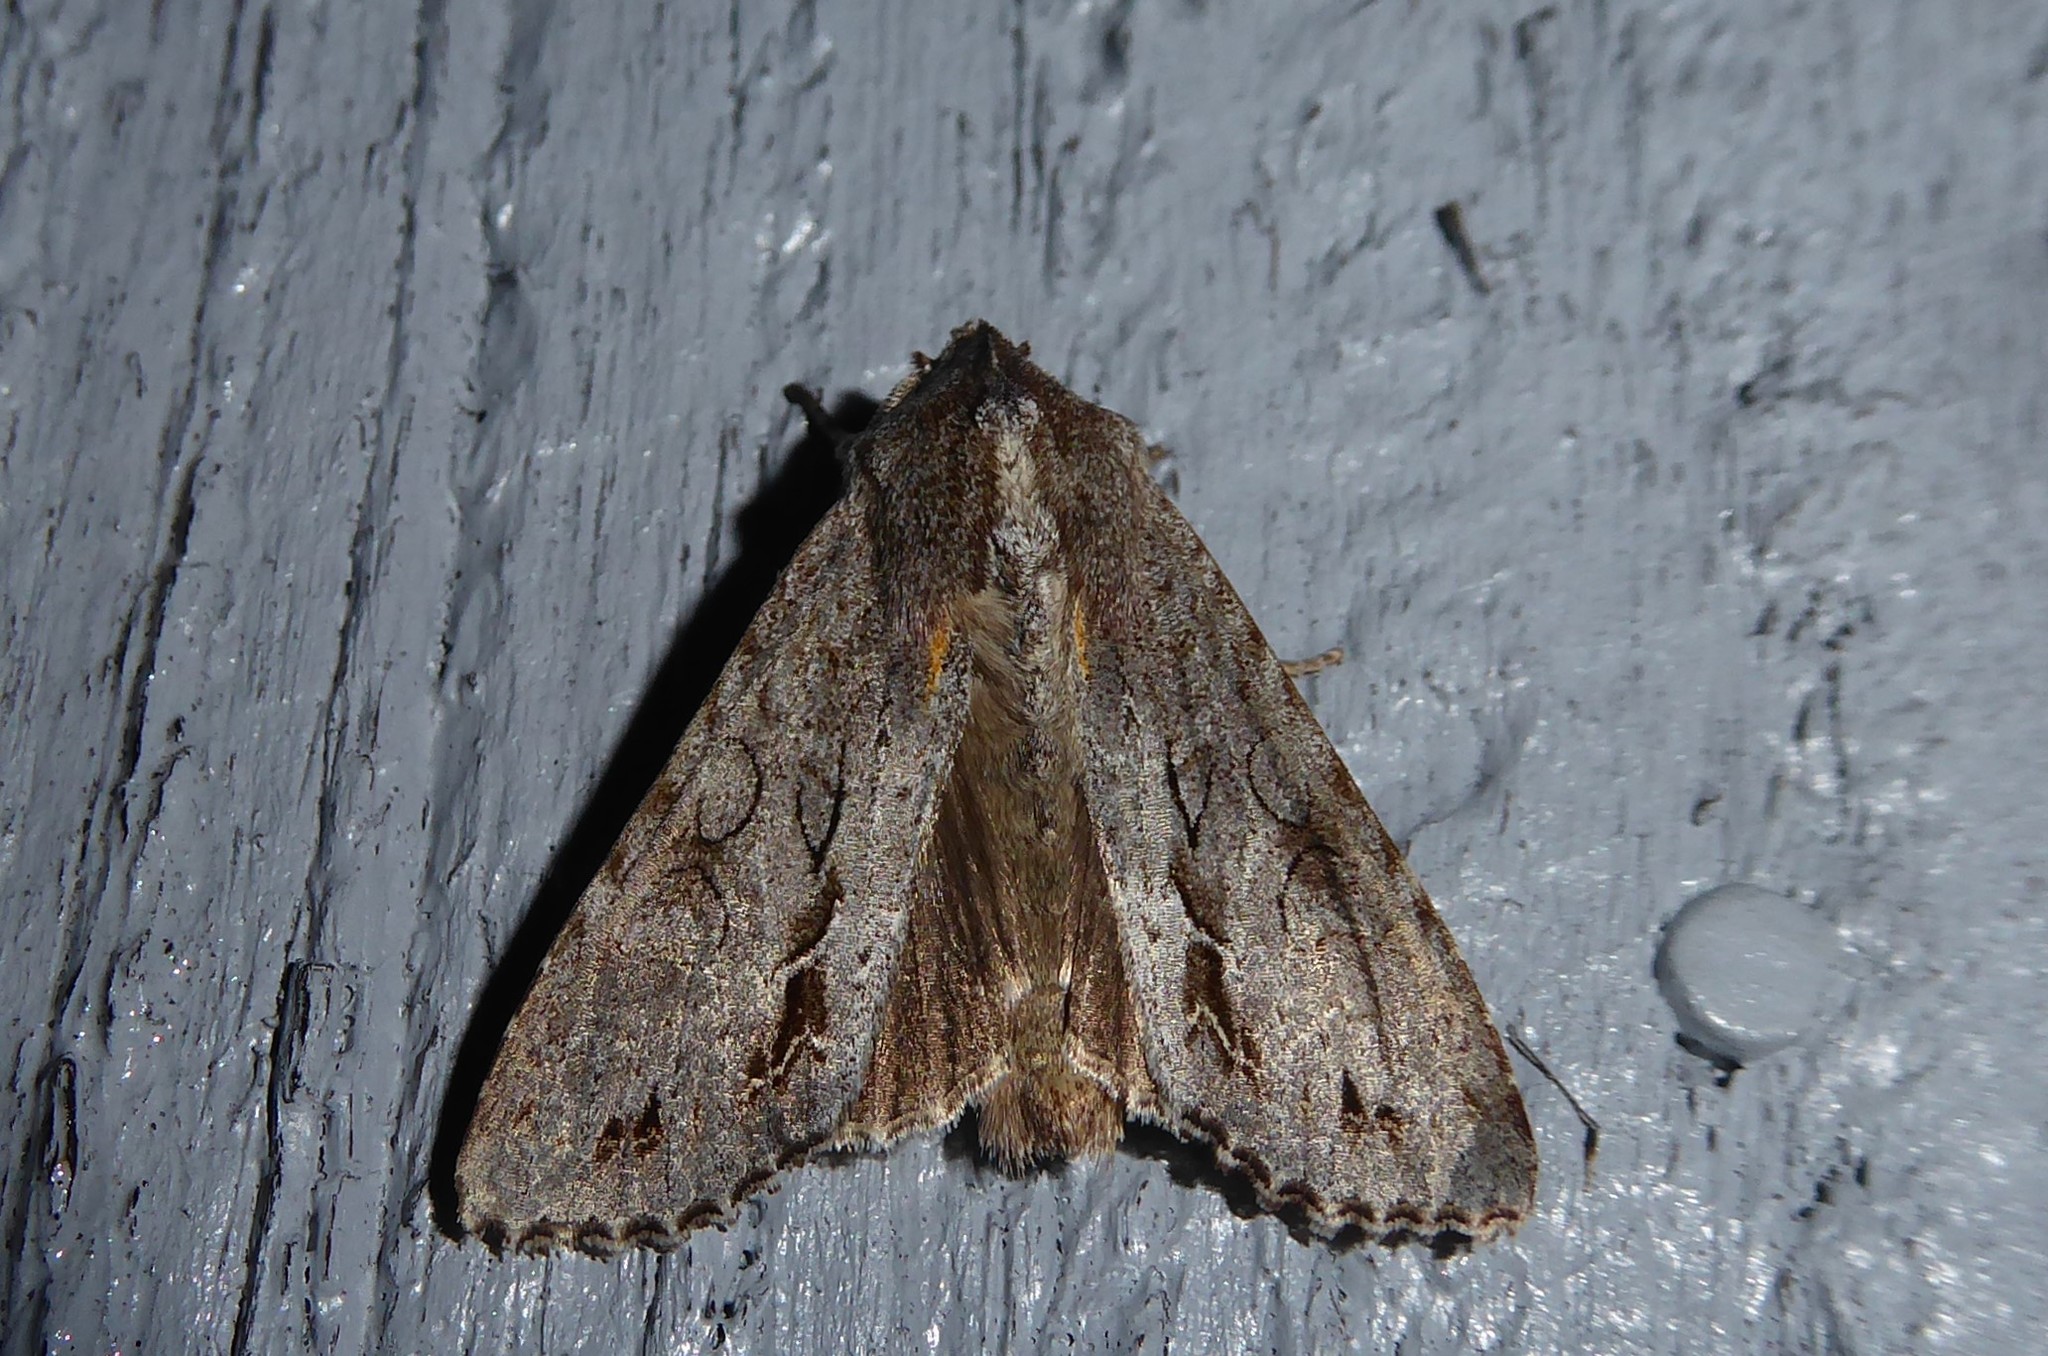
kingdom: Animalia
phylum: Arthropoda
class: Insecta
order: Lepidoptera
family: Noctuidae
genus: Ichneutica
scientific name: Ichneutica
